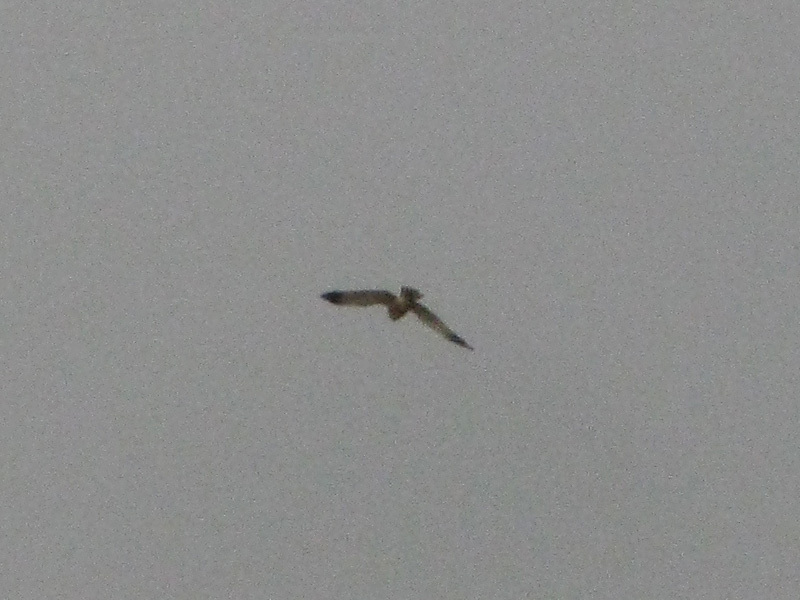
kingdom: Animalia
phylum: Chordata
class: Aves
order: Accipitriformes
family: Accipitridae
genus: Circus
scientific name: Circus aeruginosus
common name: Western marsh harrier
